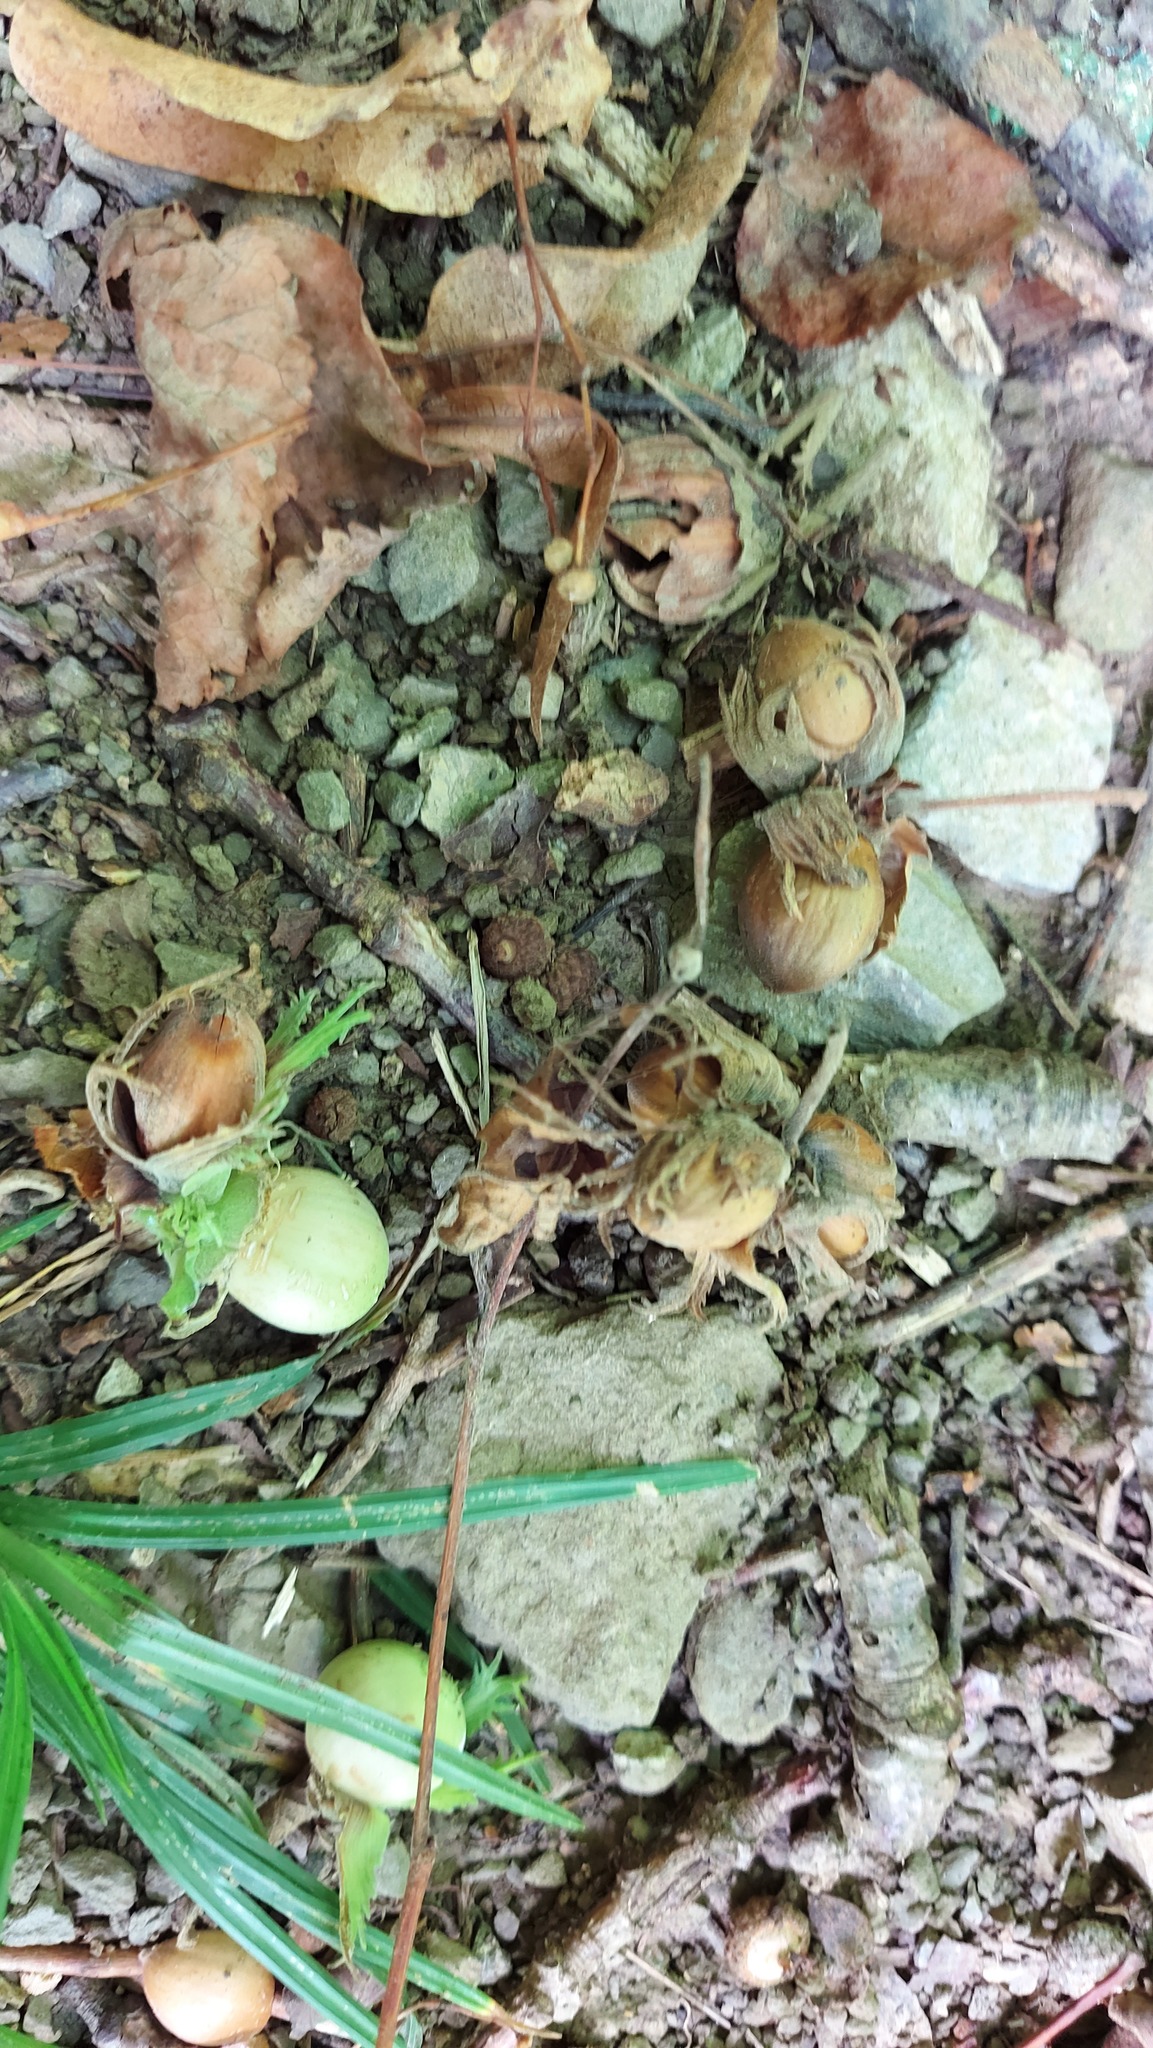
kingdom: Plantae
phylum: Tracheophyta
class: Magnoliopsida
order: Fagales
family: Betulaceae
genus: Corylus
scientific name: Corylus avellana
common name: European hazel
